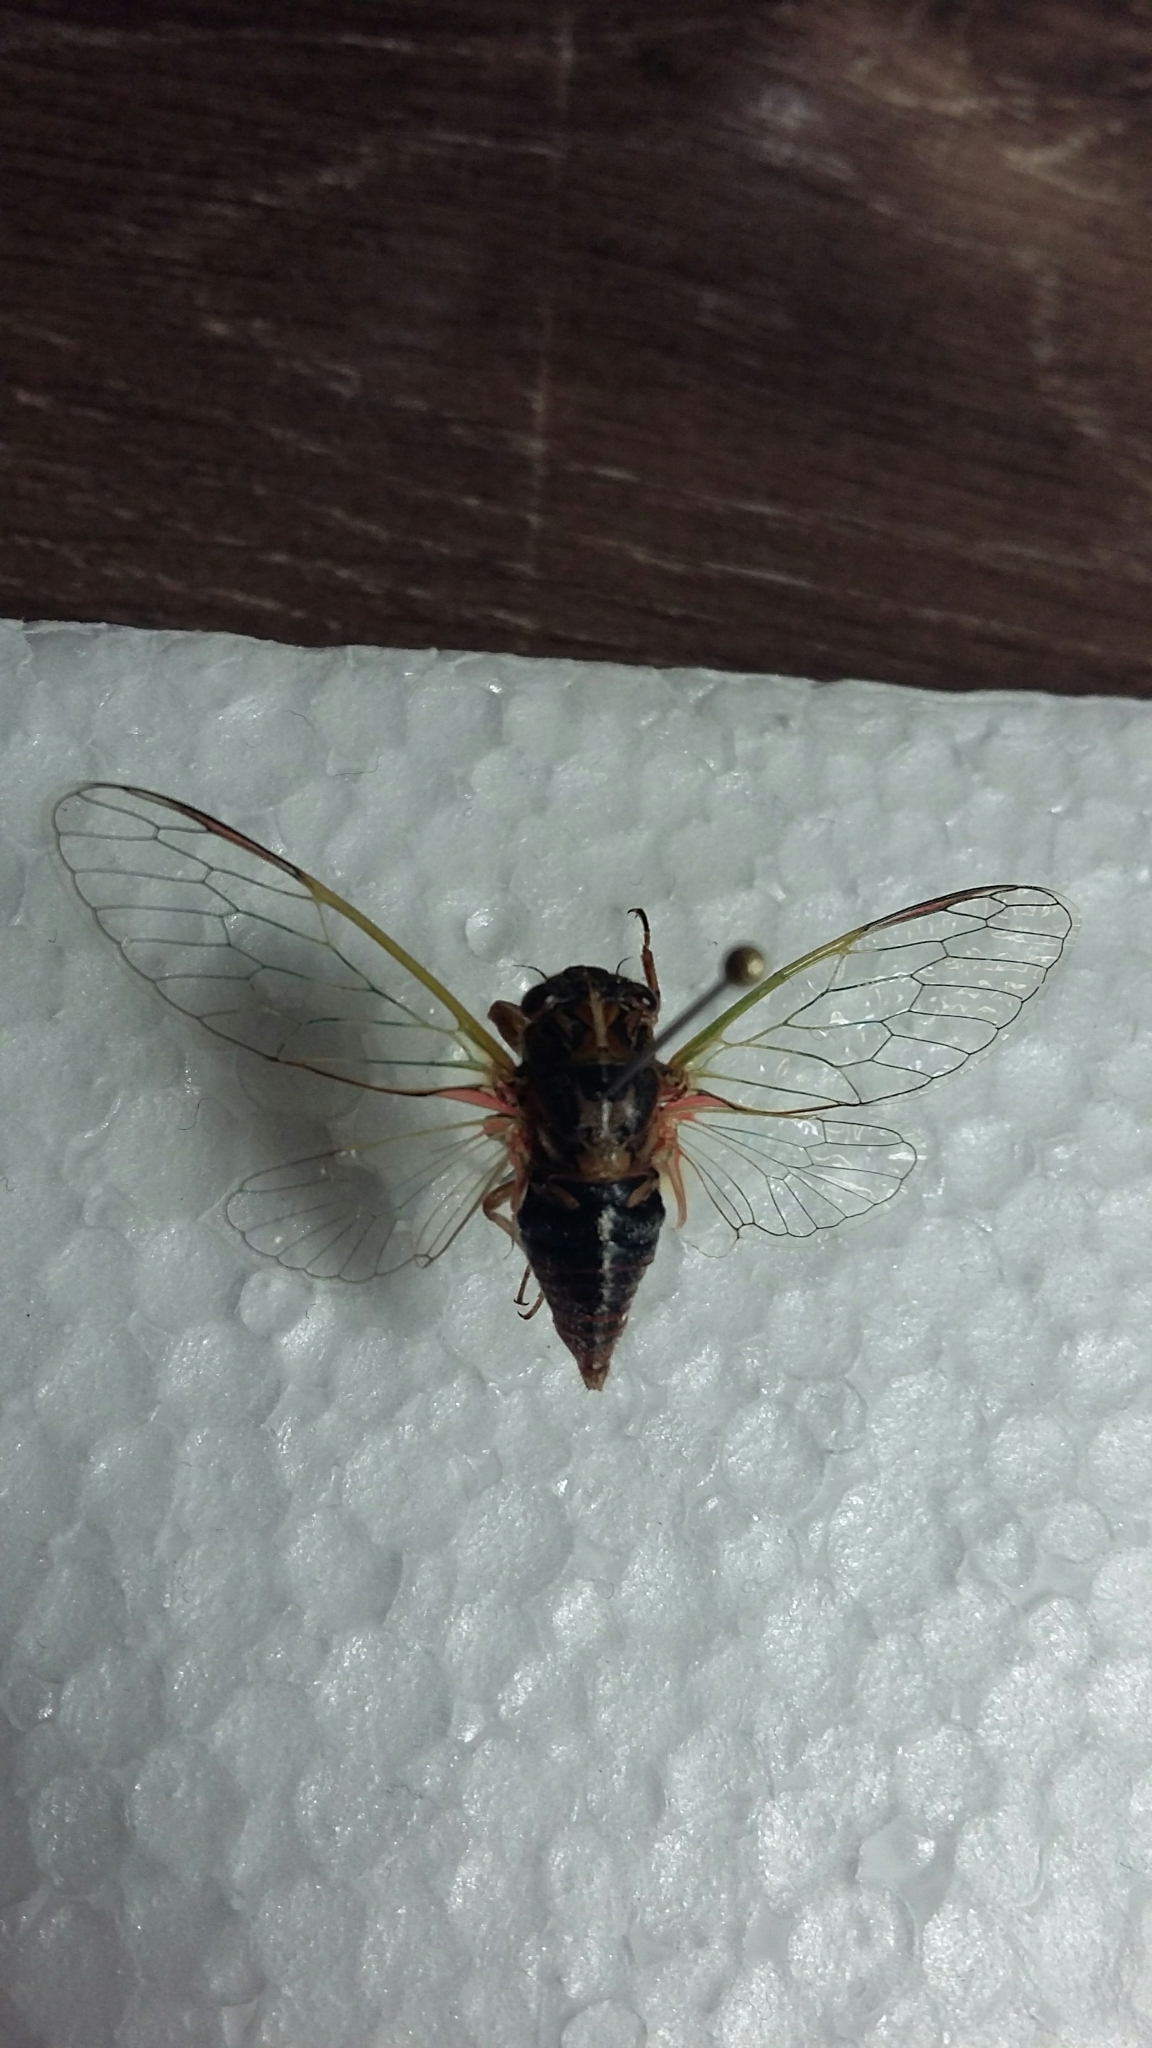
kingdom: Animalia
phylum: Arthropoda
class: Insecta
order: Hemiptera
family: Cicadidae
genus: Rhodopsalta
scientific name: Rhodopsalta cruentata
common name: Blood redtail cicada
